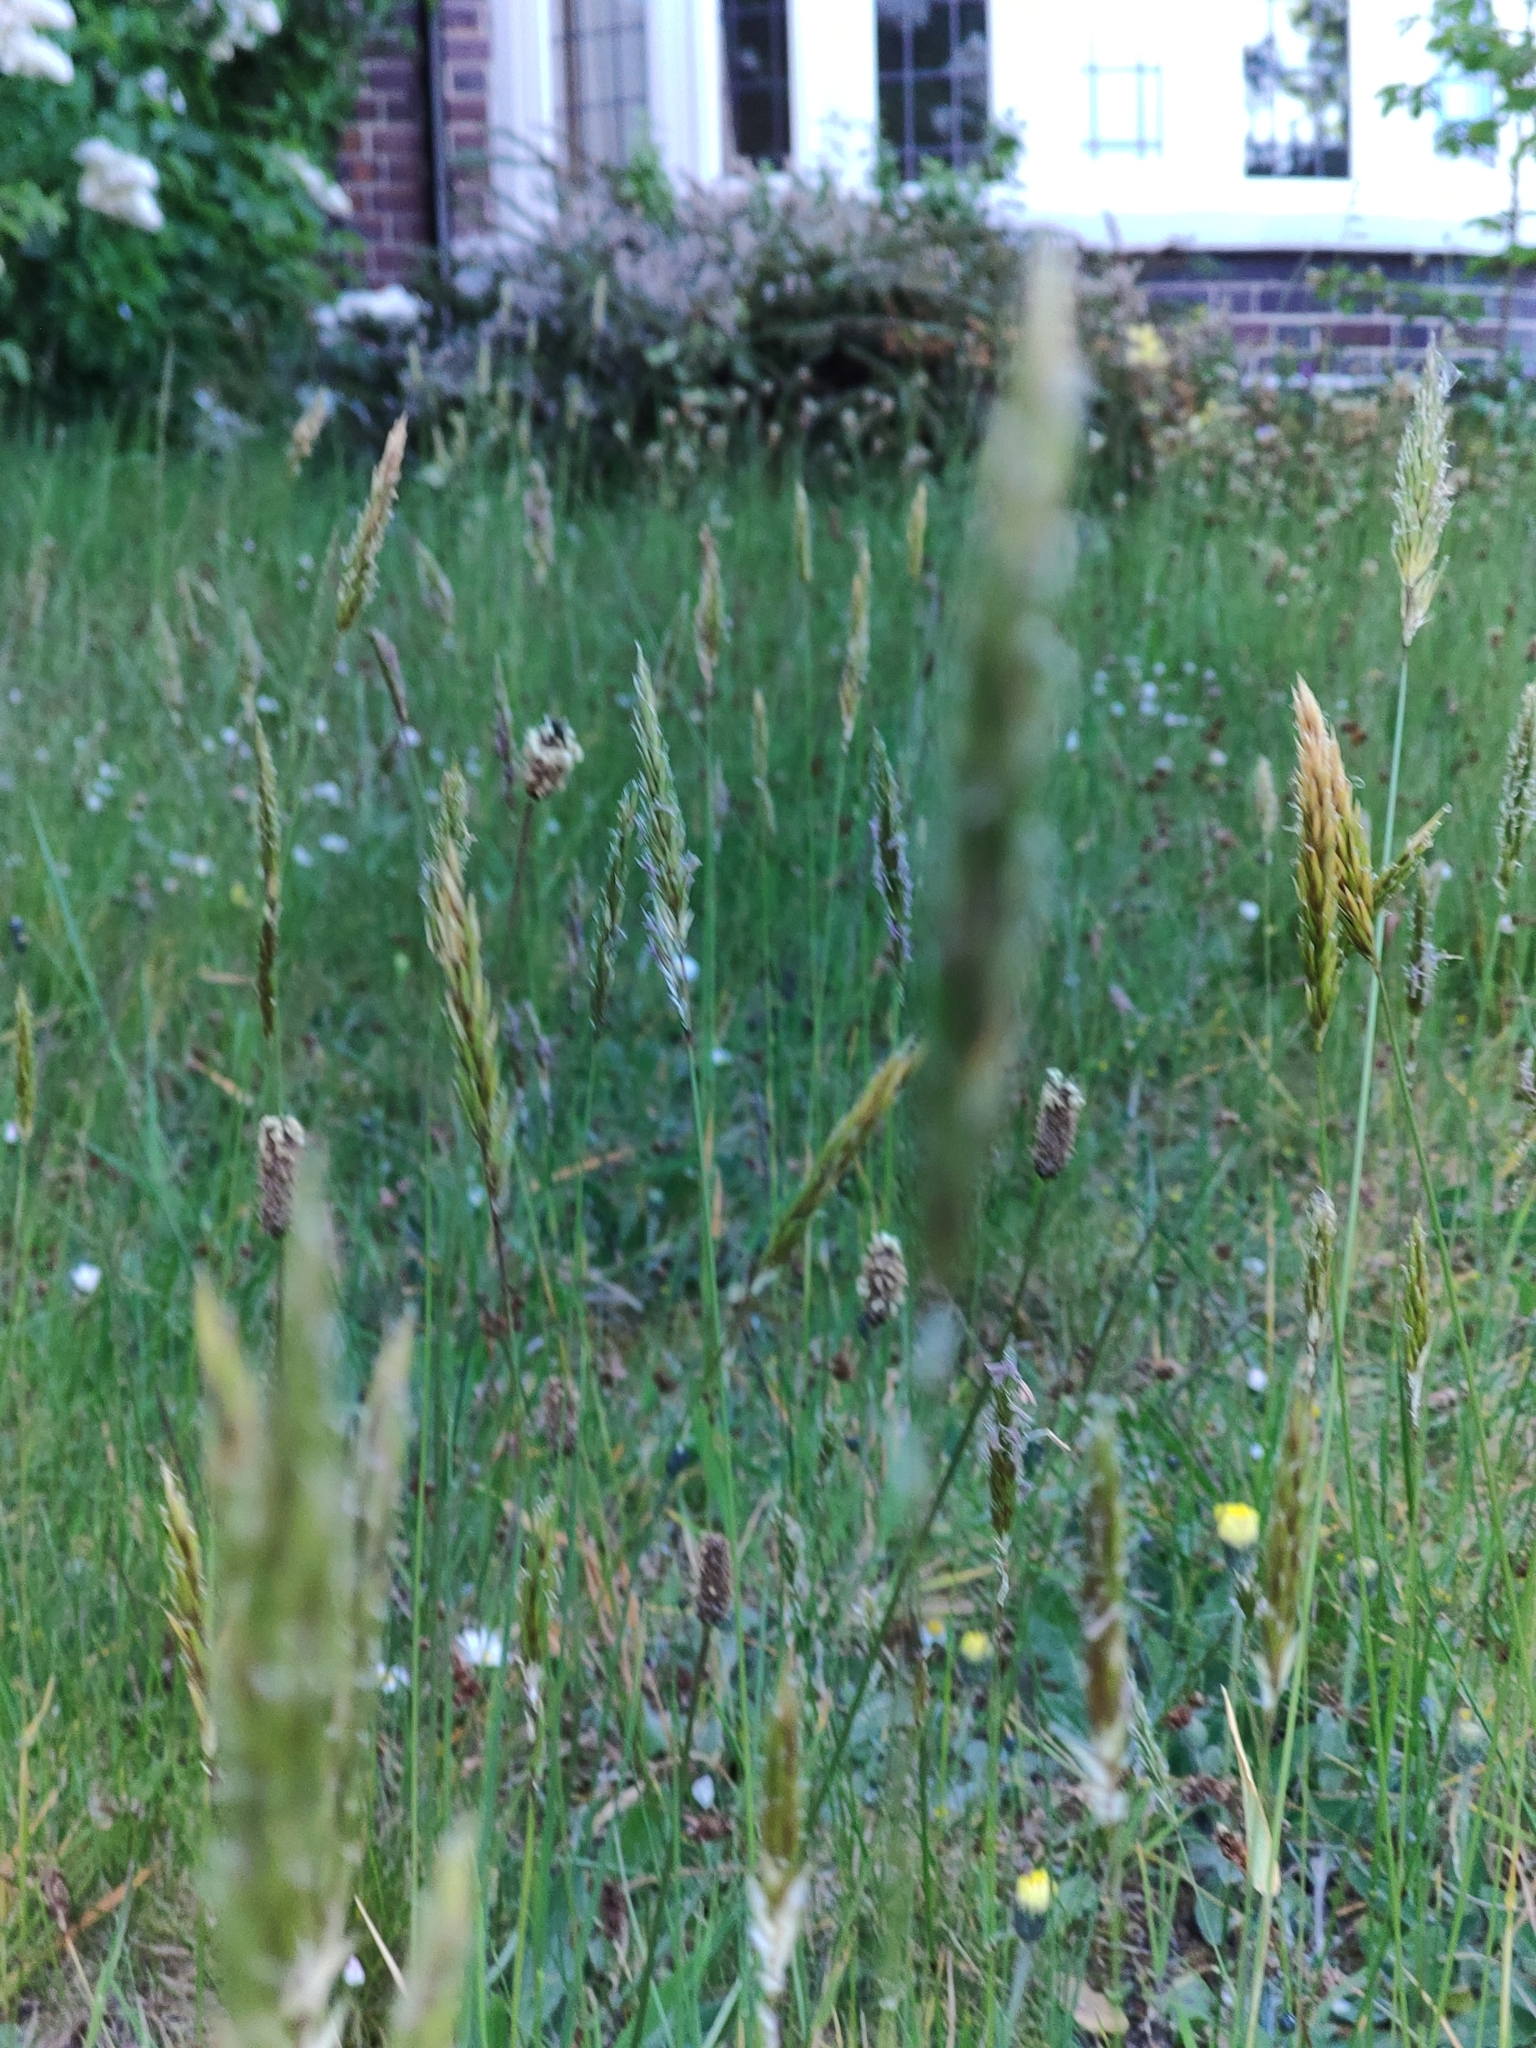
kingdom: Plantae
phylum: Tracheophyta
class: Liliopsida
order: Poales
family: Poaceae
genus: Anthoxanthum
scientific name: Anthoxanthum odoratum
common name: Sweet vernalgrass
